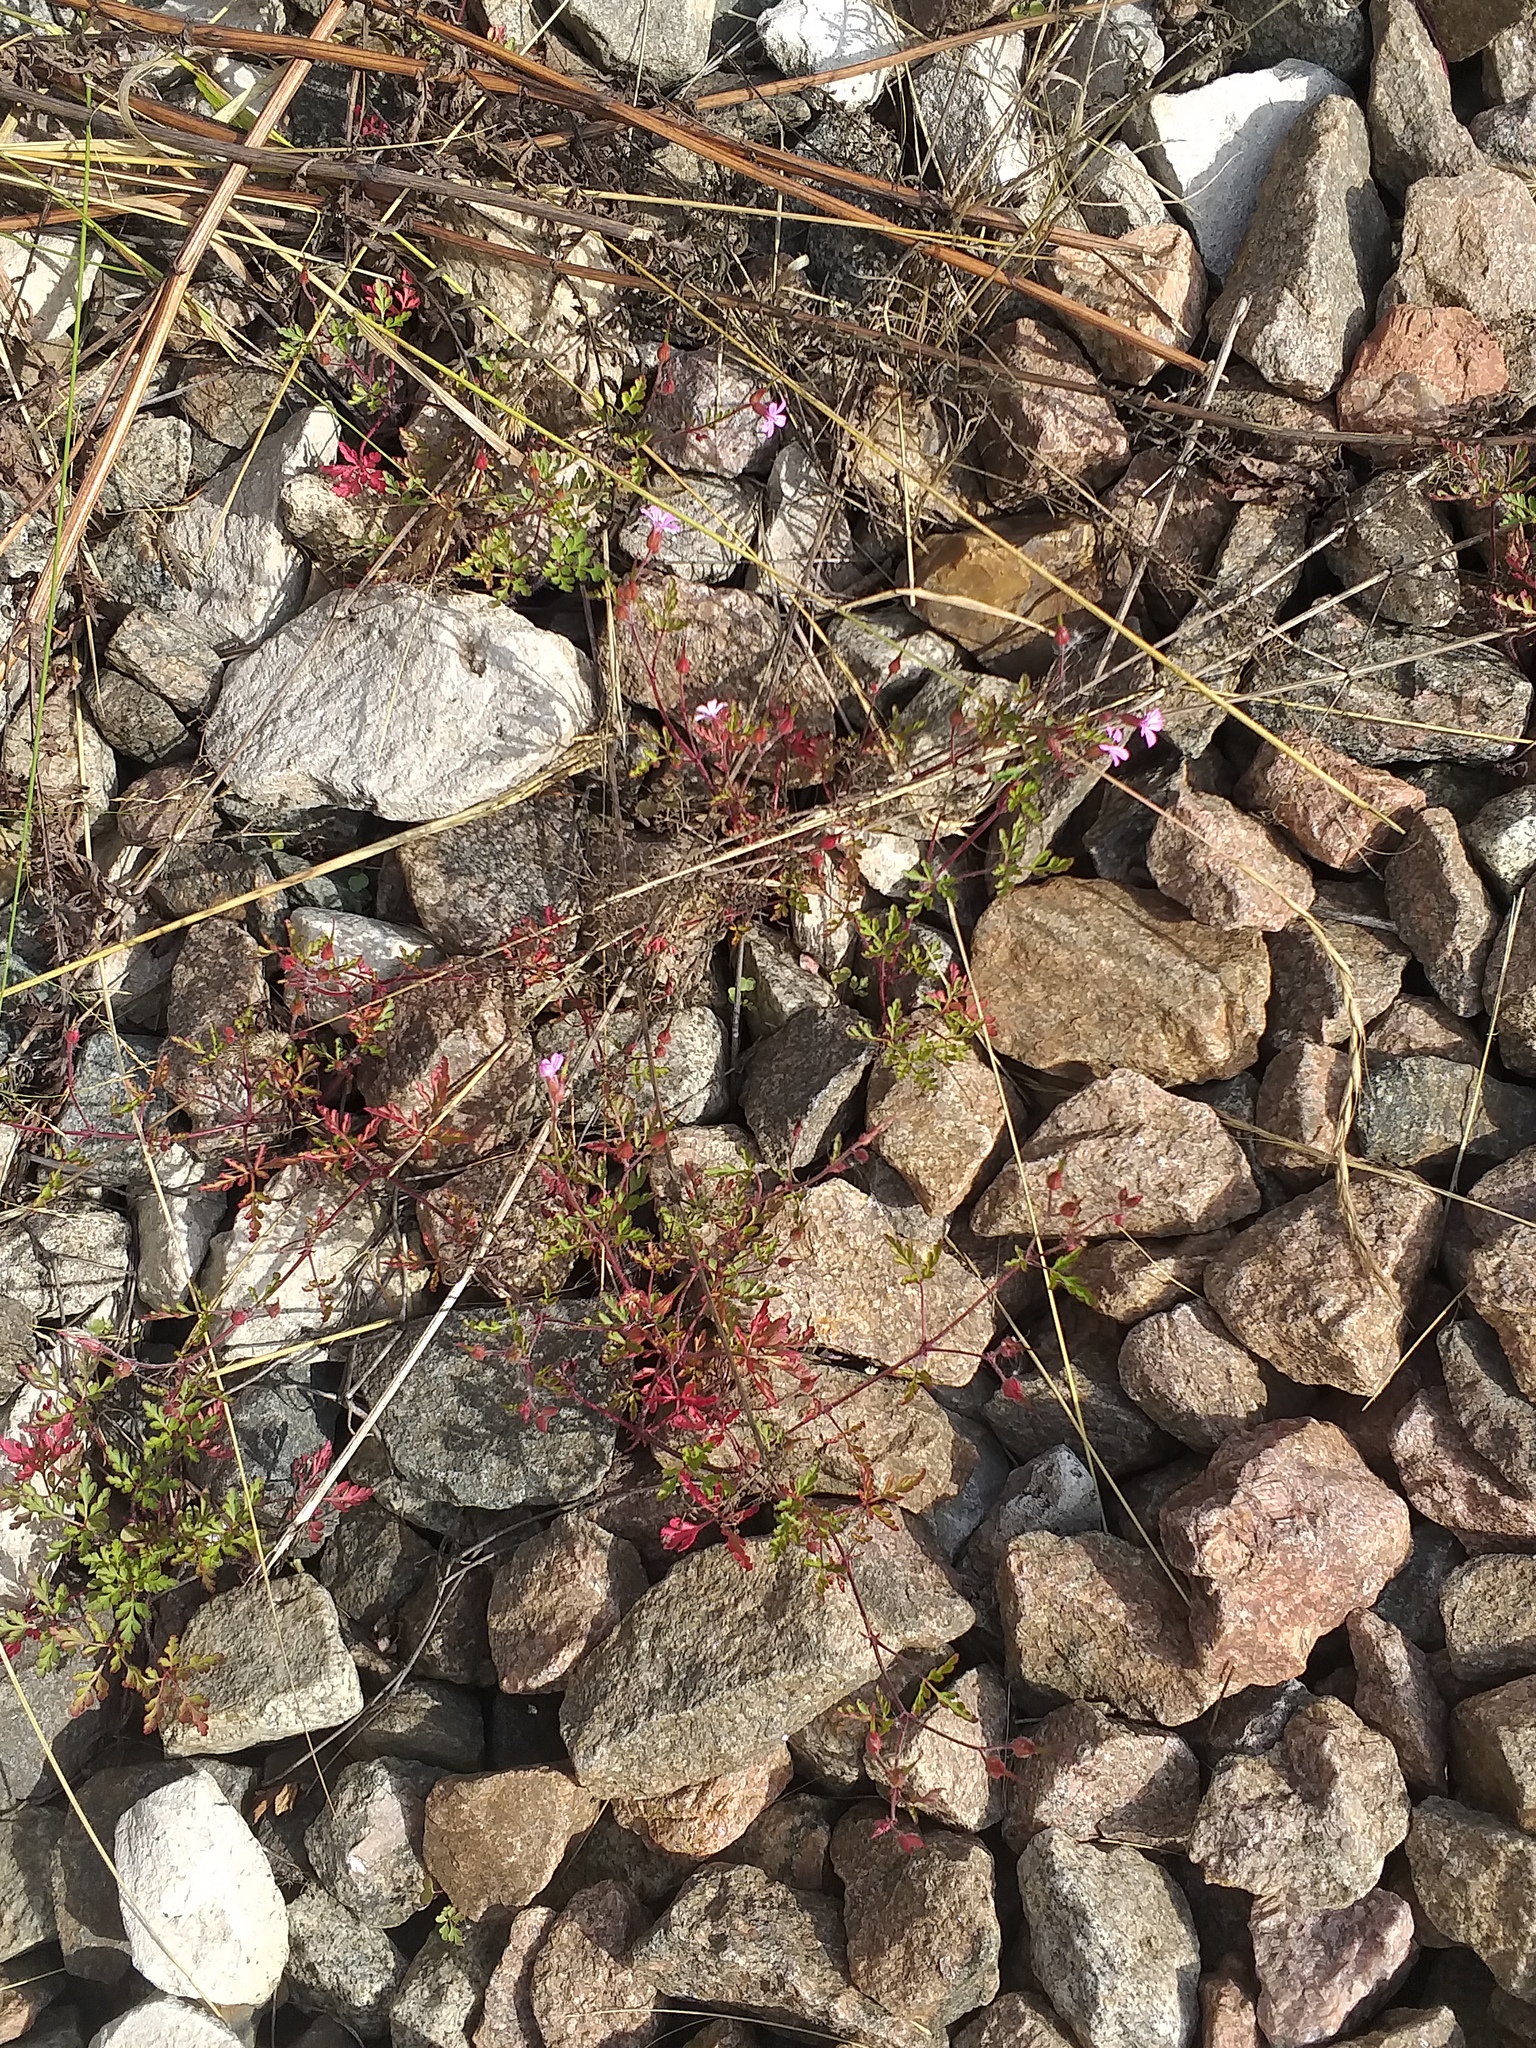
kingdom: Plantae
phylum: Tracheophyta
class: Magnoliopsida
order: Geraniales
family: Geraniaceae
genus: Geranium
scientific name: Geranium robertianum
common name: Herb-robert
